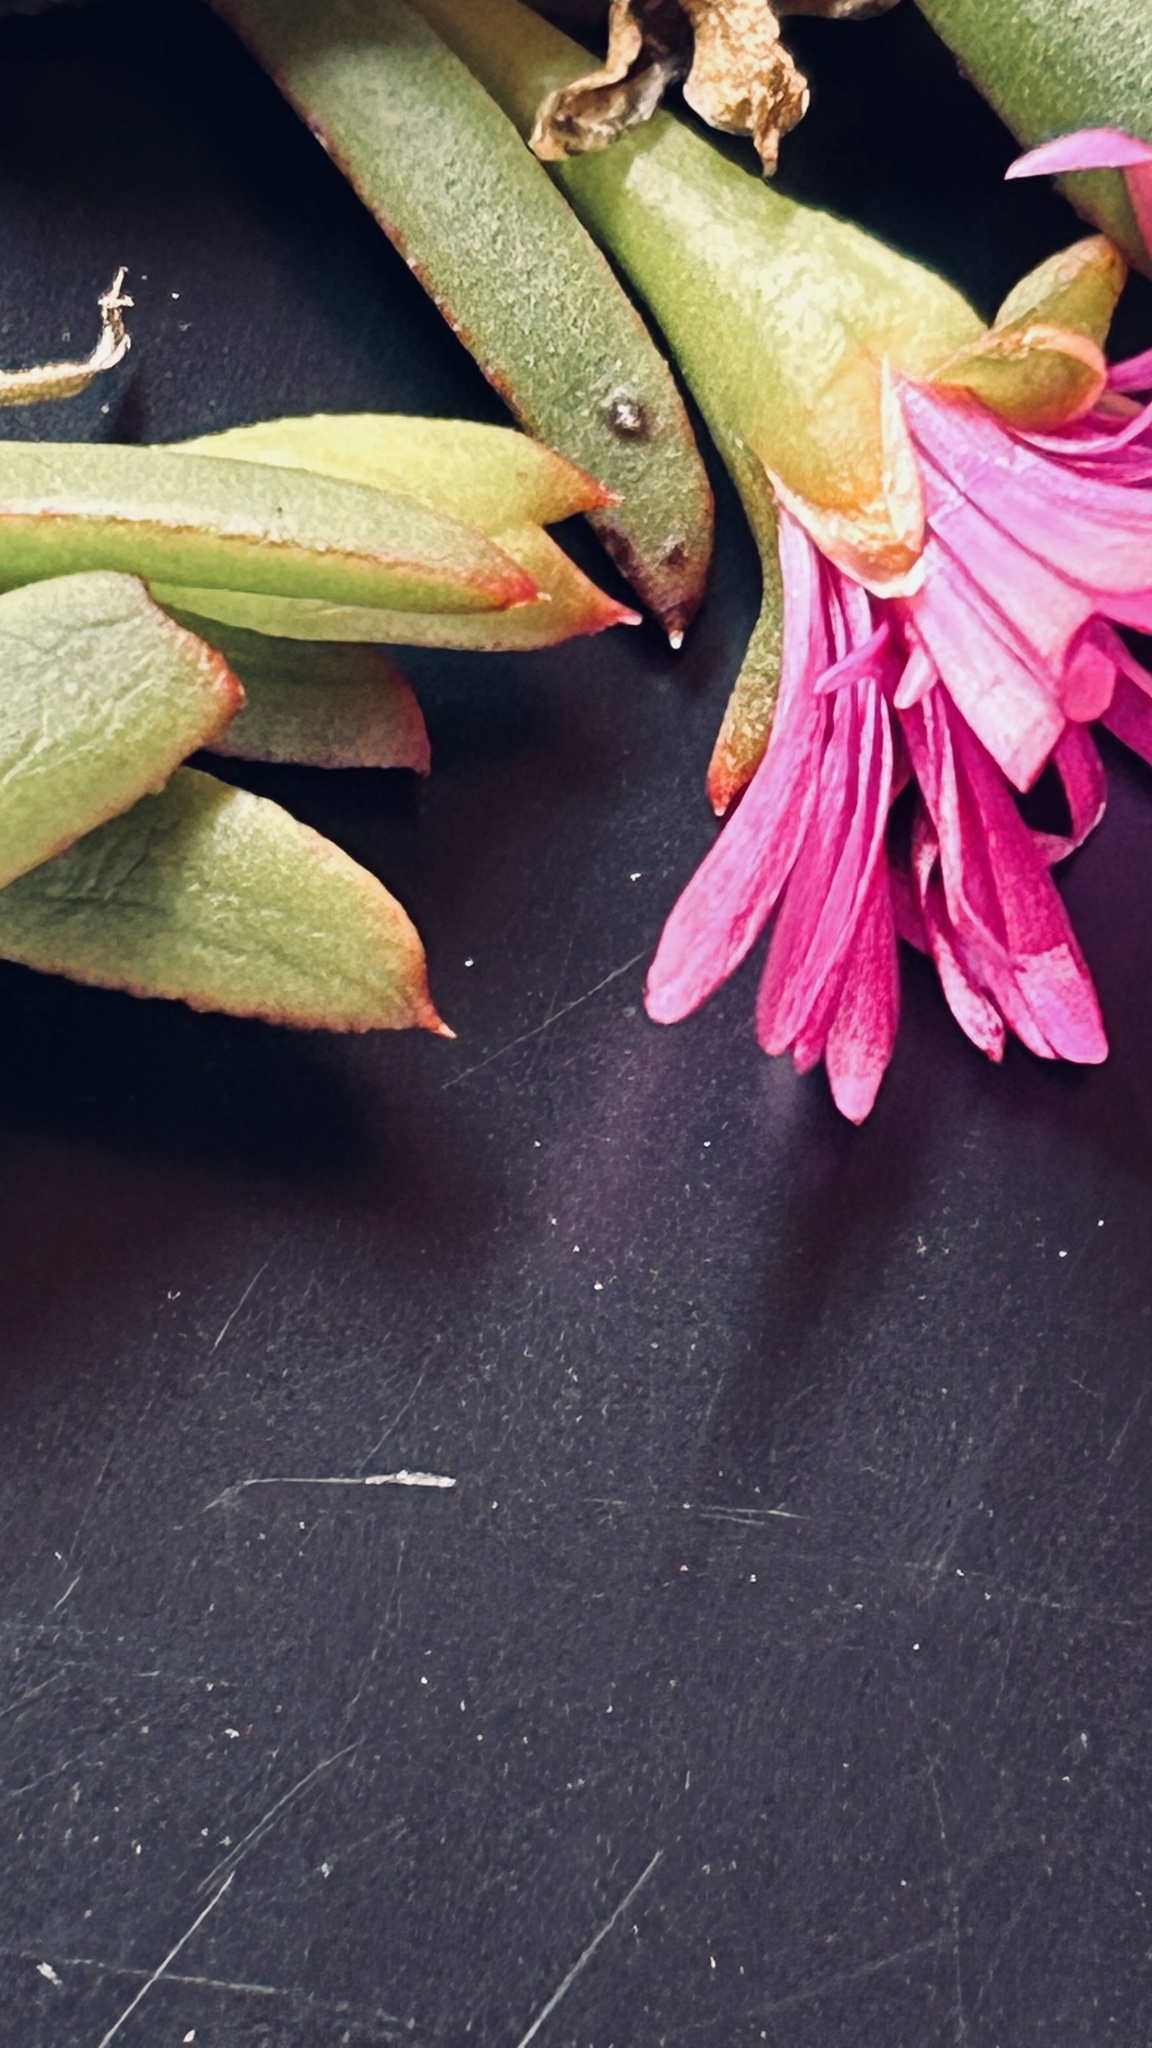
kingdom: Plantae
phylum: Tracheophyta
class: Magnoliopsida
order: Caryophyllales
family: Aizoaceae
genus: Delosperma
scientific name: Delosperma virens
